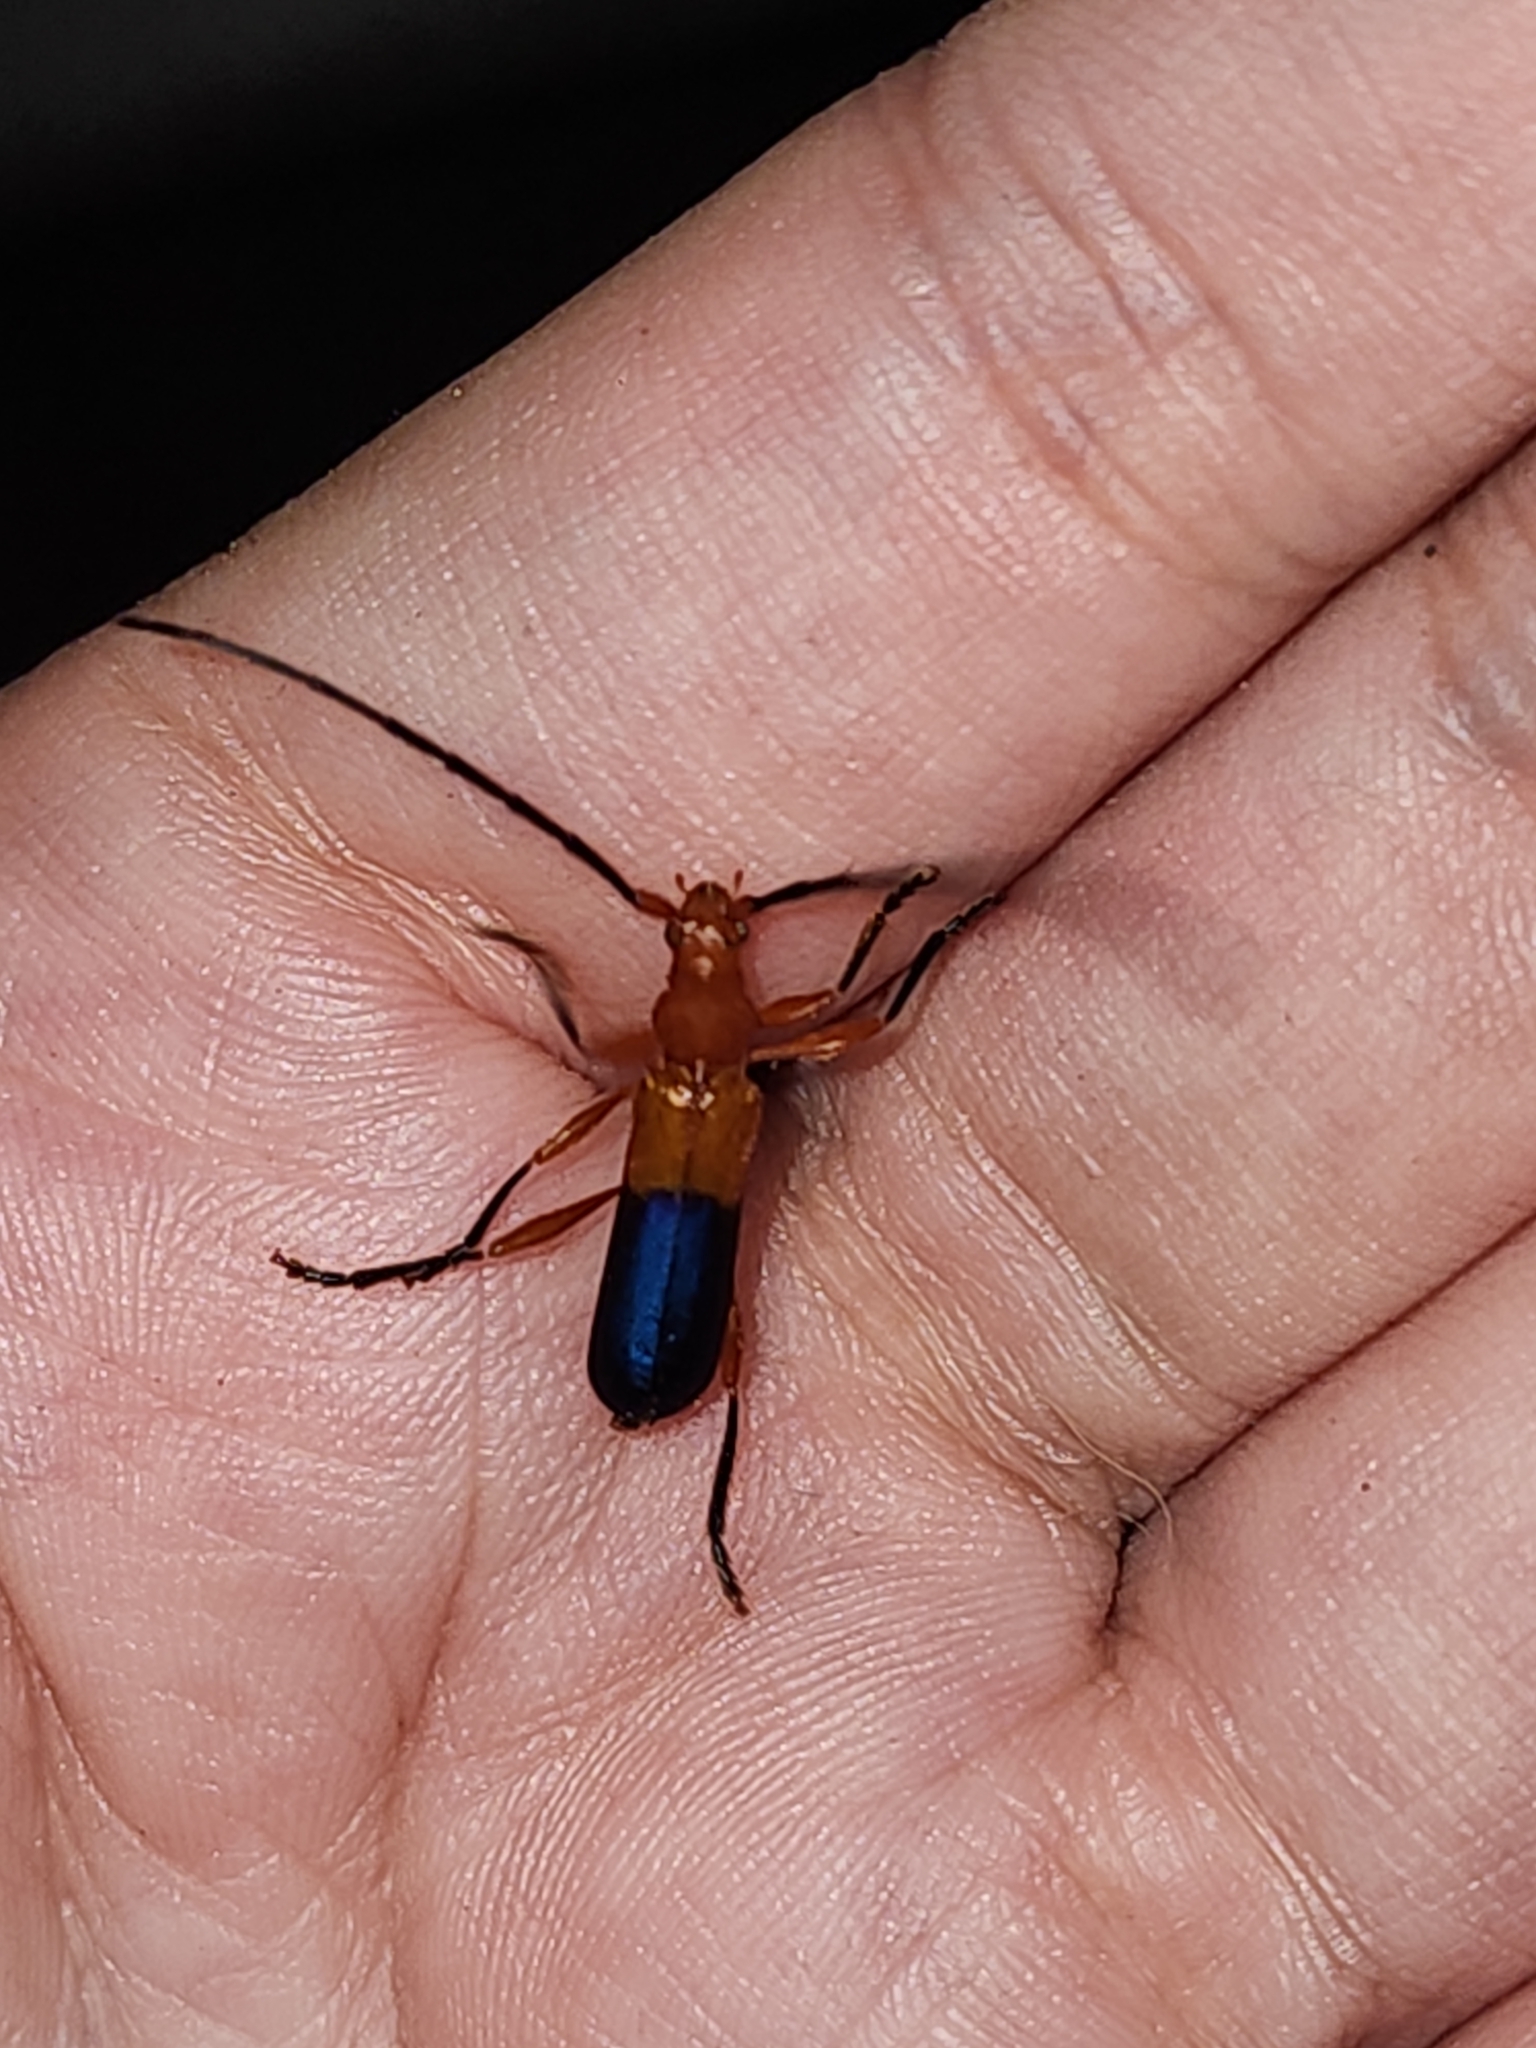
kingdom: Animalia
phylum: Arthropoda
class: Insecta
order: Coleoptera
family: Cerambycidae
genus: Ethemon
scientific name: Ethemon basale
